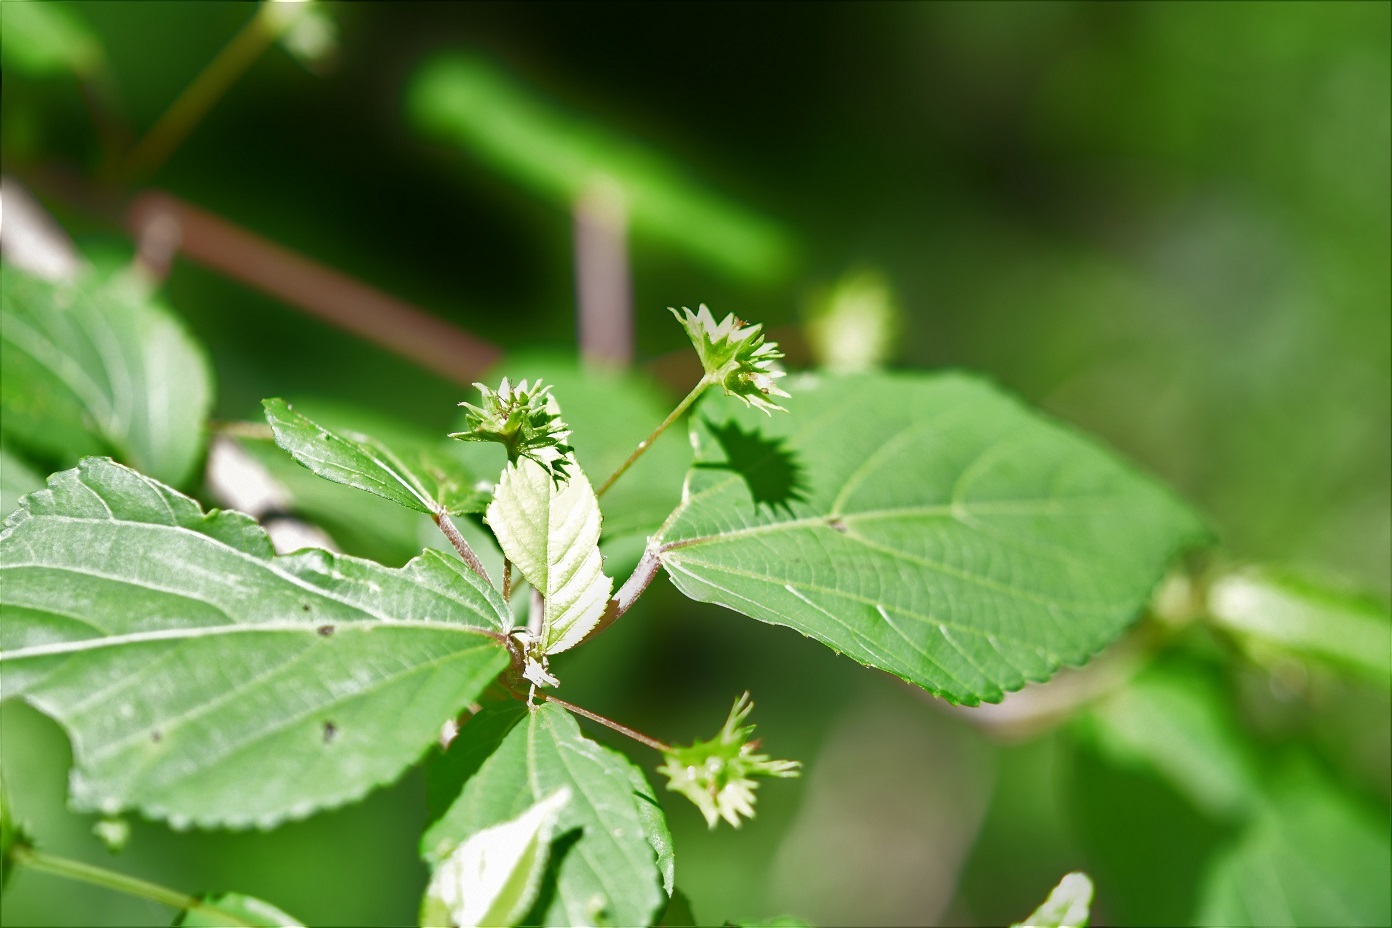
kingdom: Plantae
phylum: Tracheophyta
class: Magnoliopsida
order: Malpighiales
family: Euphorbiaceae
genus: Acalypha
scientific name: Acalypha leptopoda
